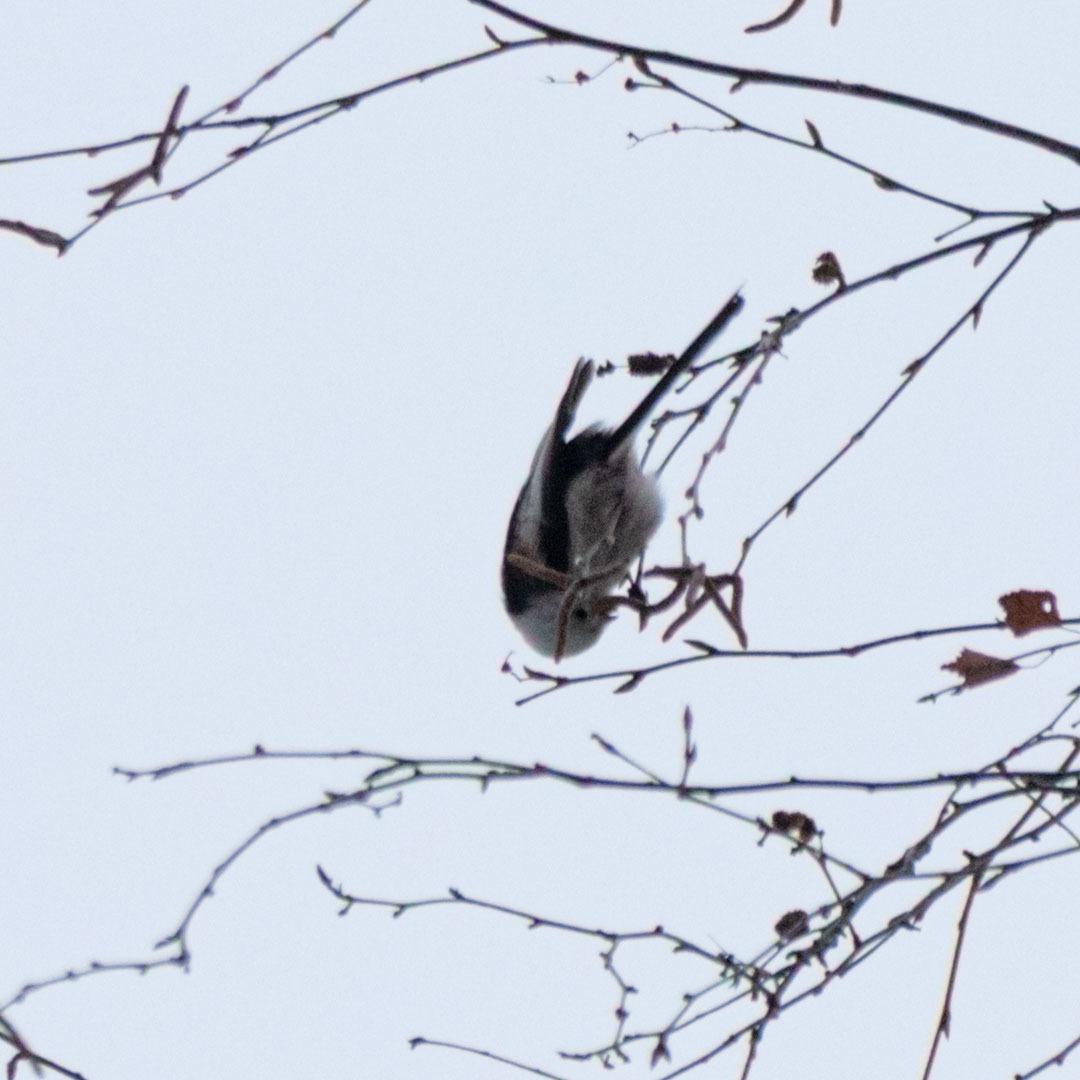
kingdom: Animalia
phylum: Chordata
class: Aves
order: Passeriformes
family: Aegithalidae
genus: Aegithalos
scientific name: Aegithalos caudatus
